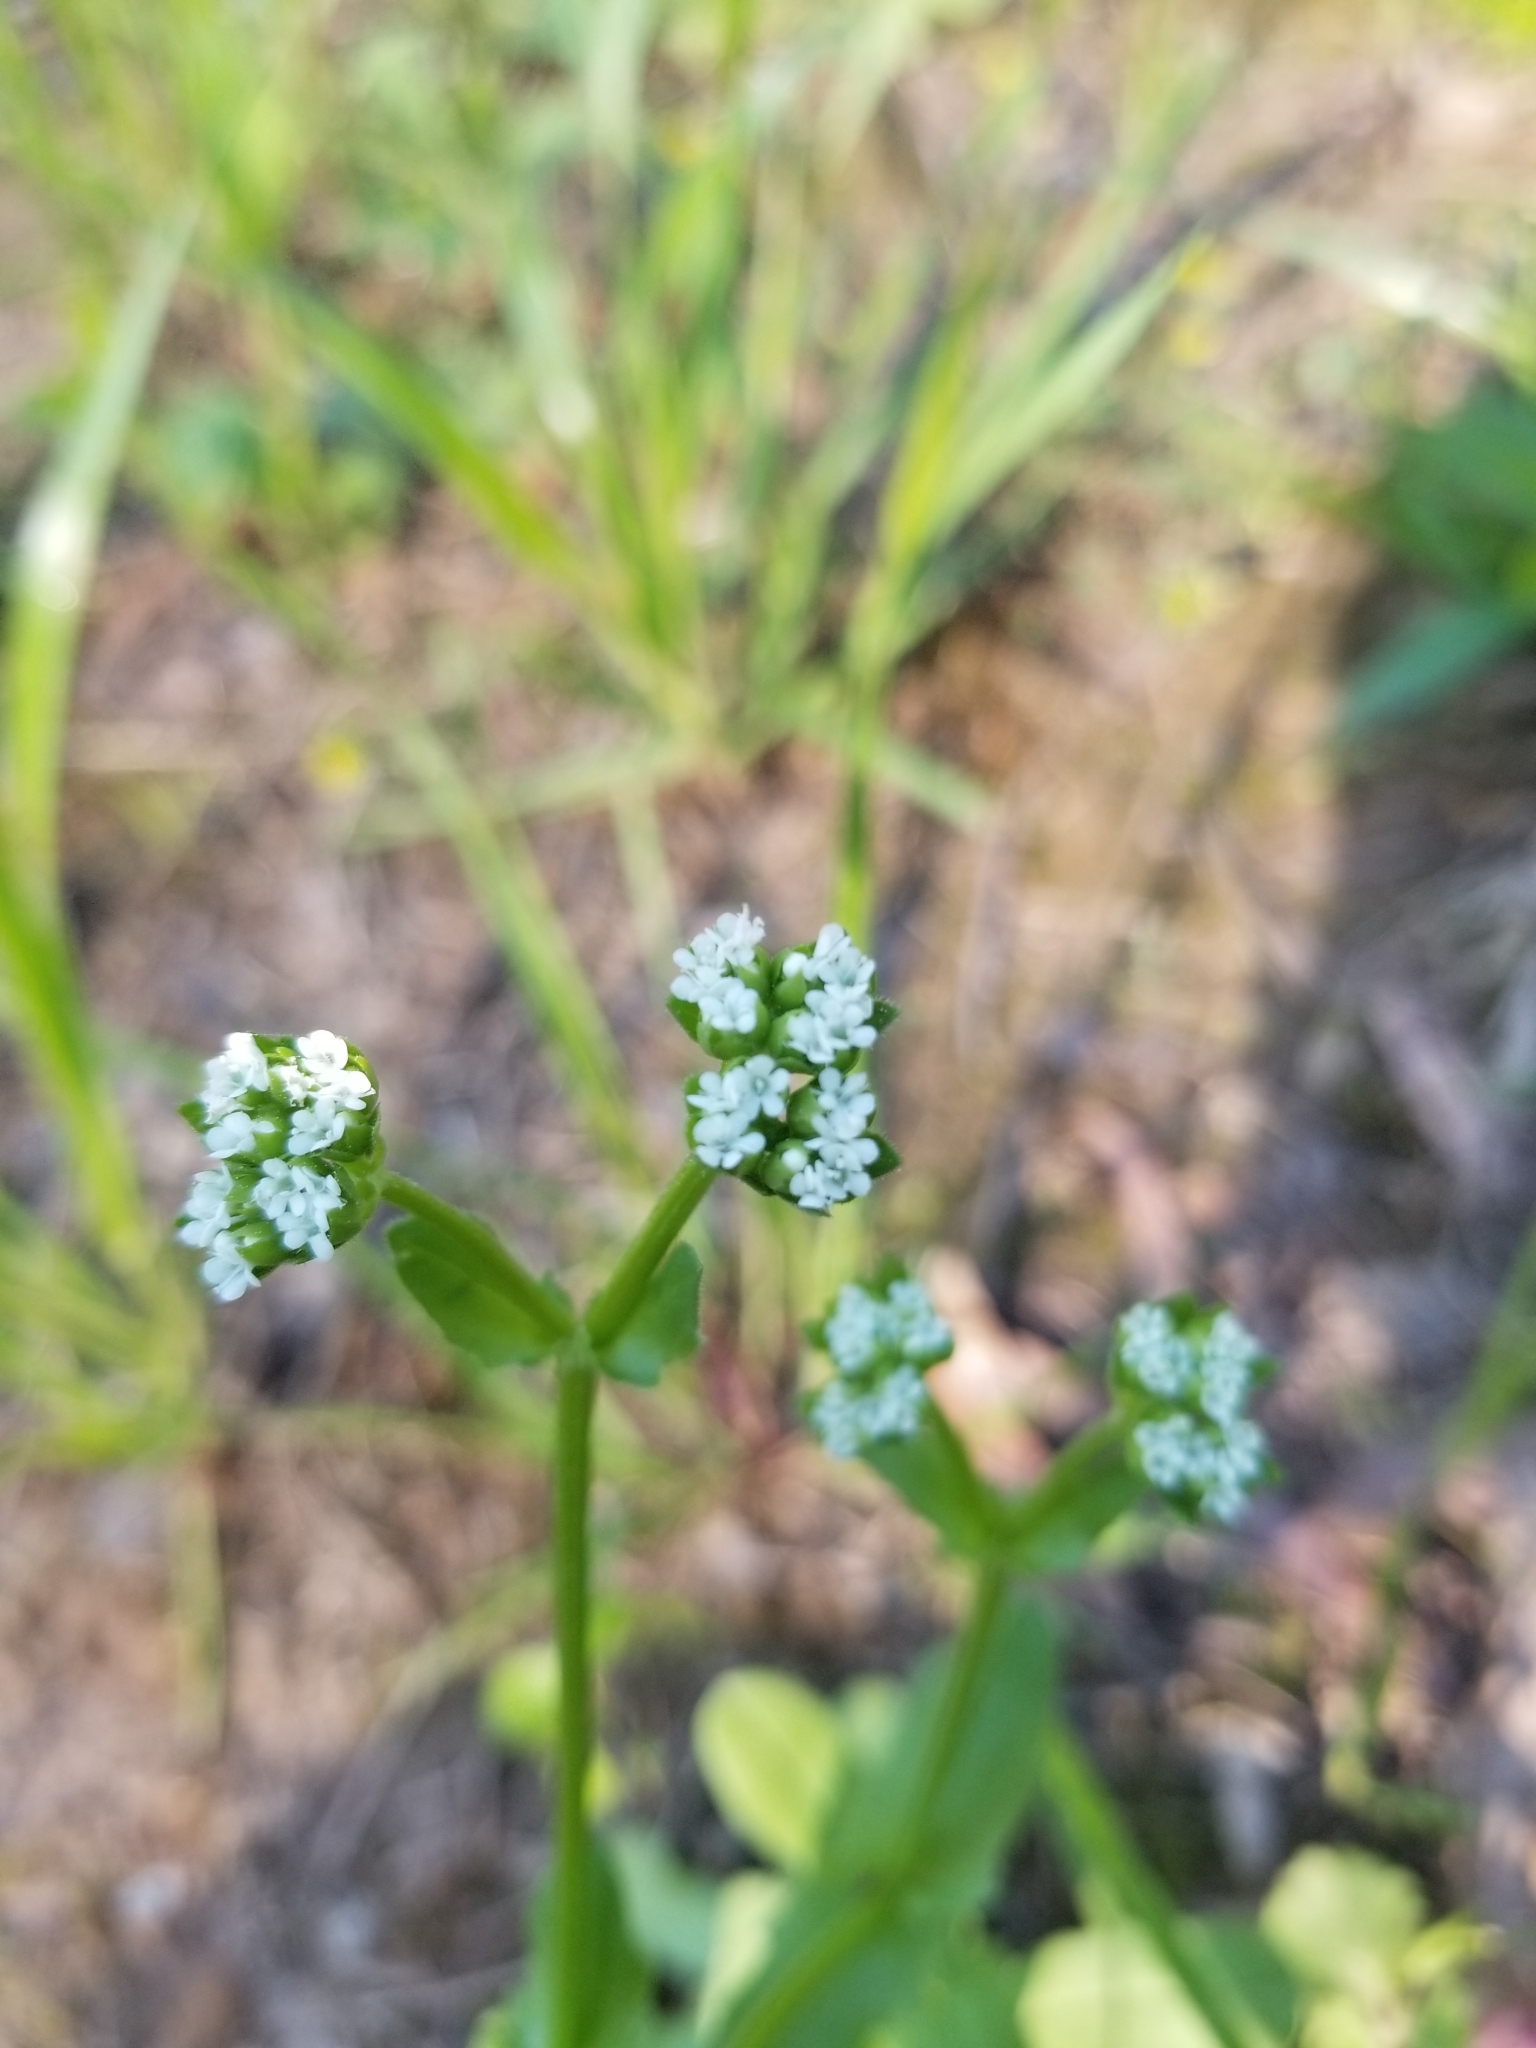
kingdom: Plantae
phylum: Tracheophyta
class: Magnoliopsida
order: Dipsacales
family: Caprifoliaceae
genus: Valerianella
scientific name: Valerianella radiata
